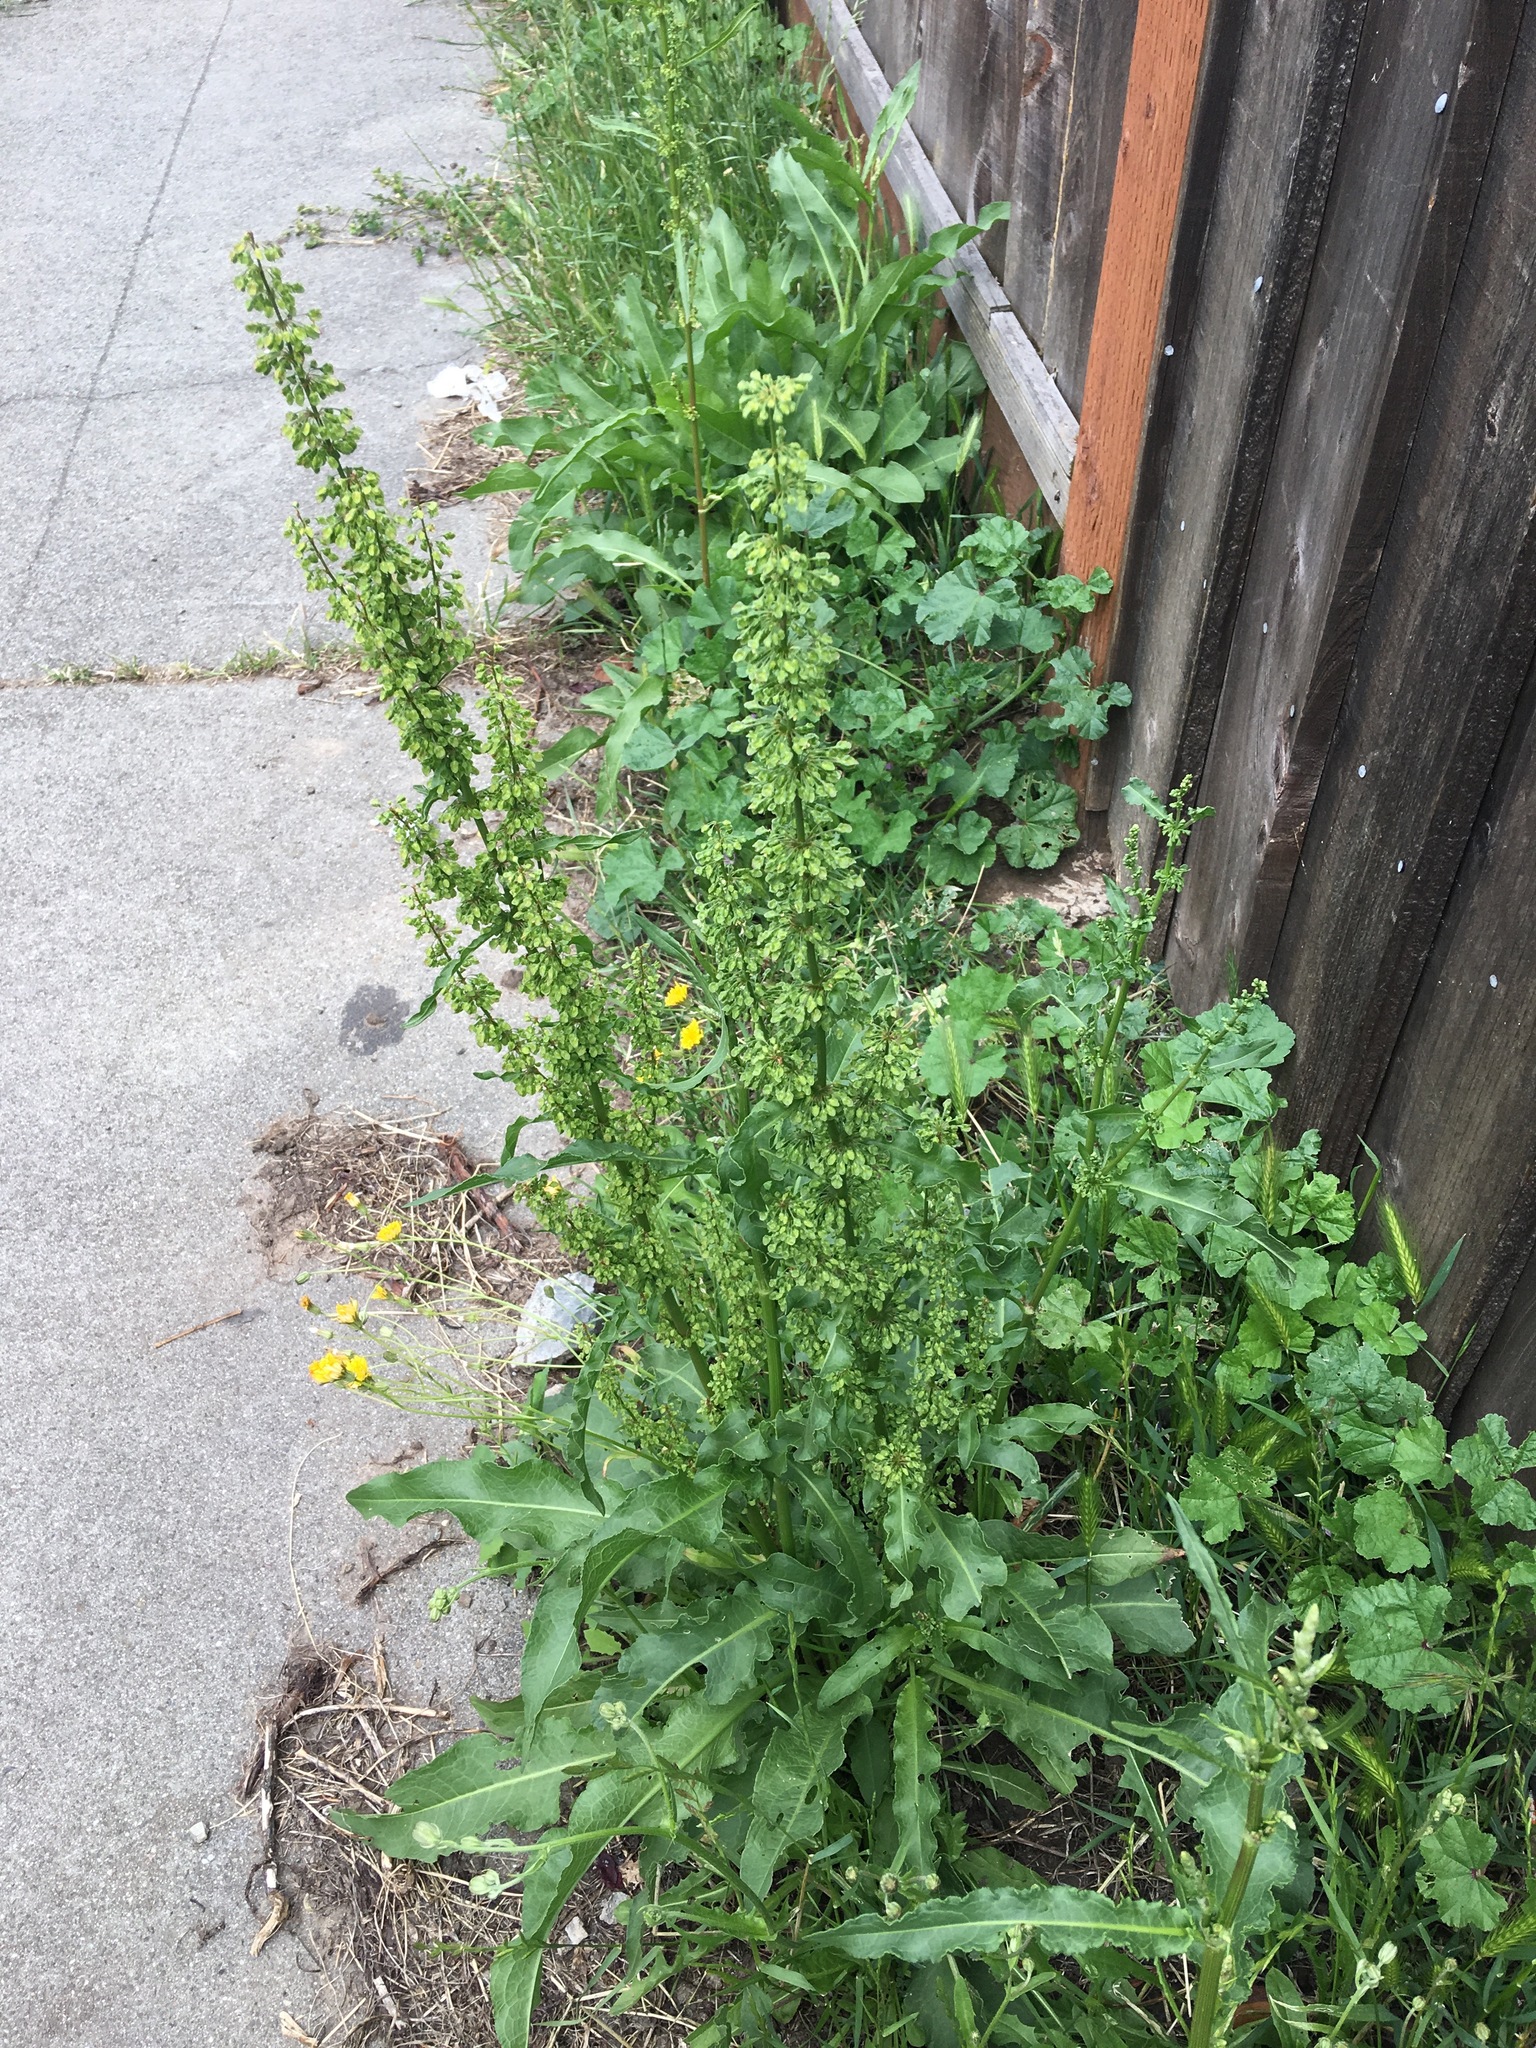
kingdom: Plantae
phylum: Tracheophyta
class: Magnoliopsida
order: Caryophyllales
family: Polygonaceae
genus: Rumex
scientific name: Rumex crispus
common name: Curled dock
